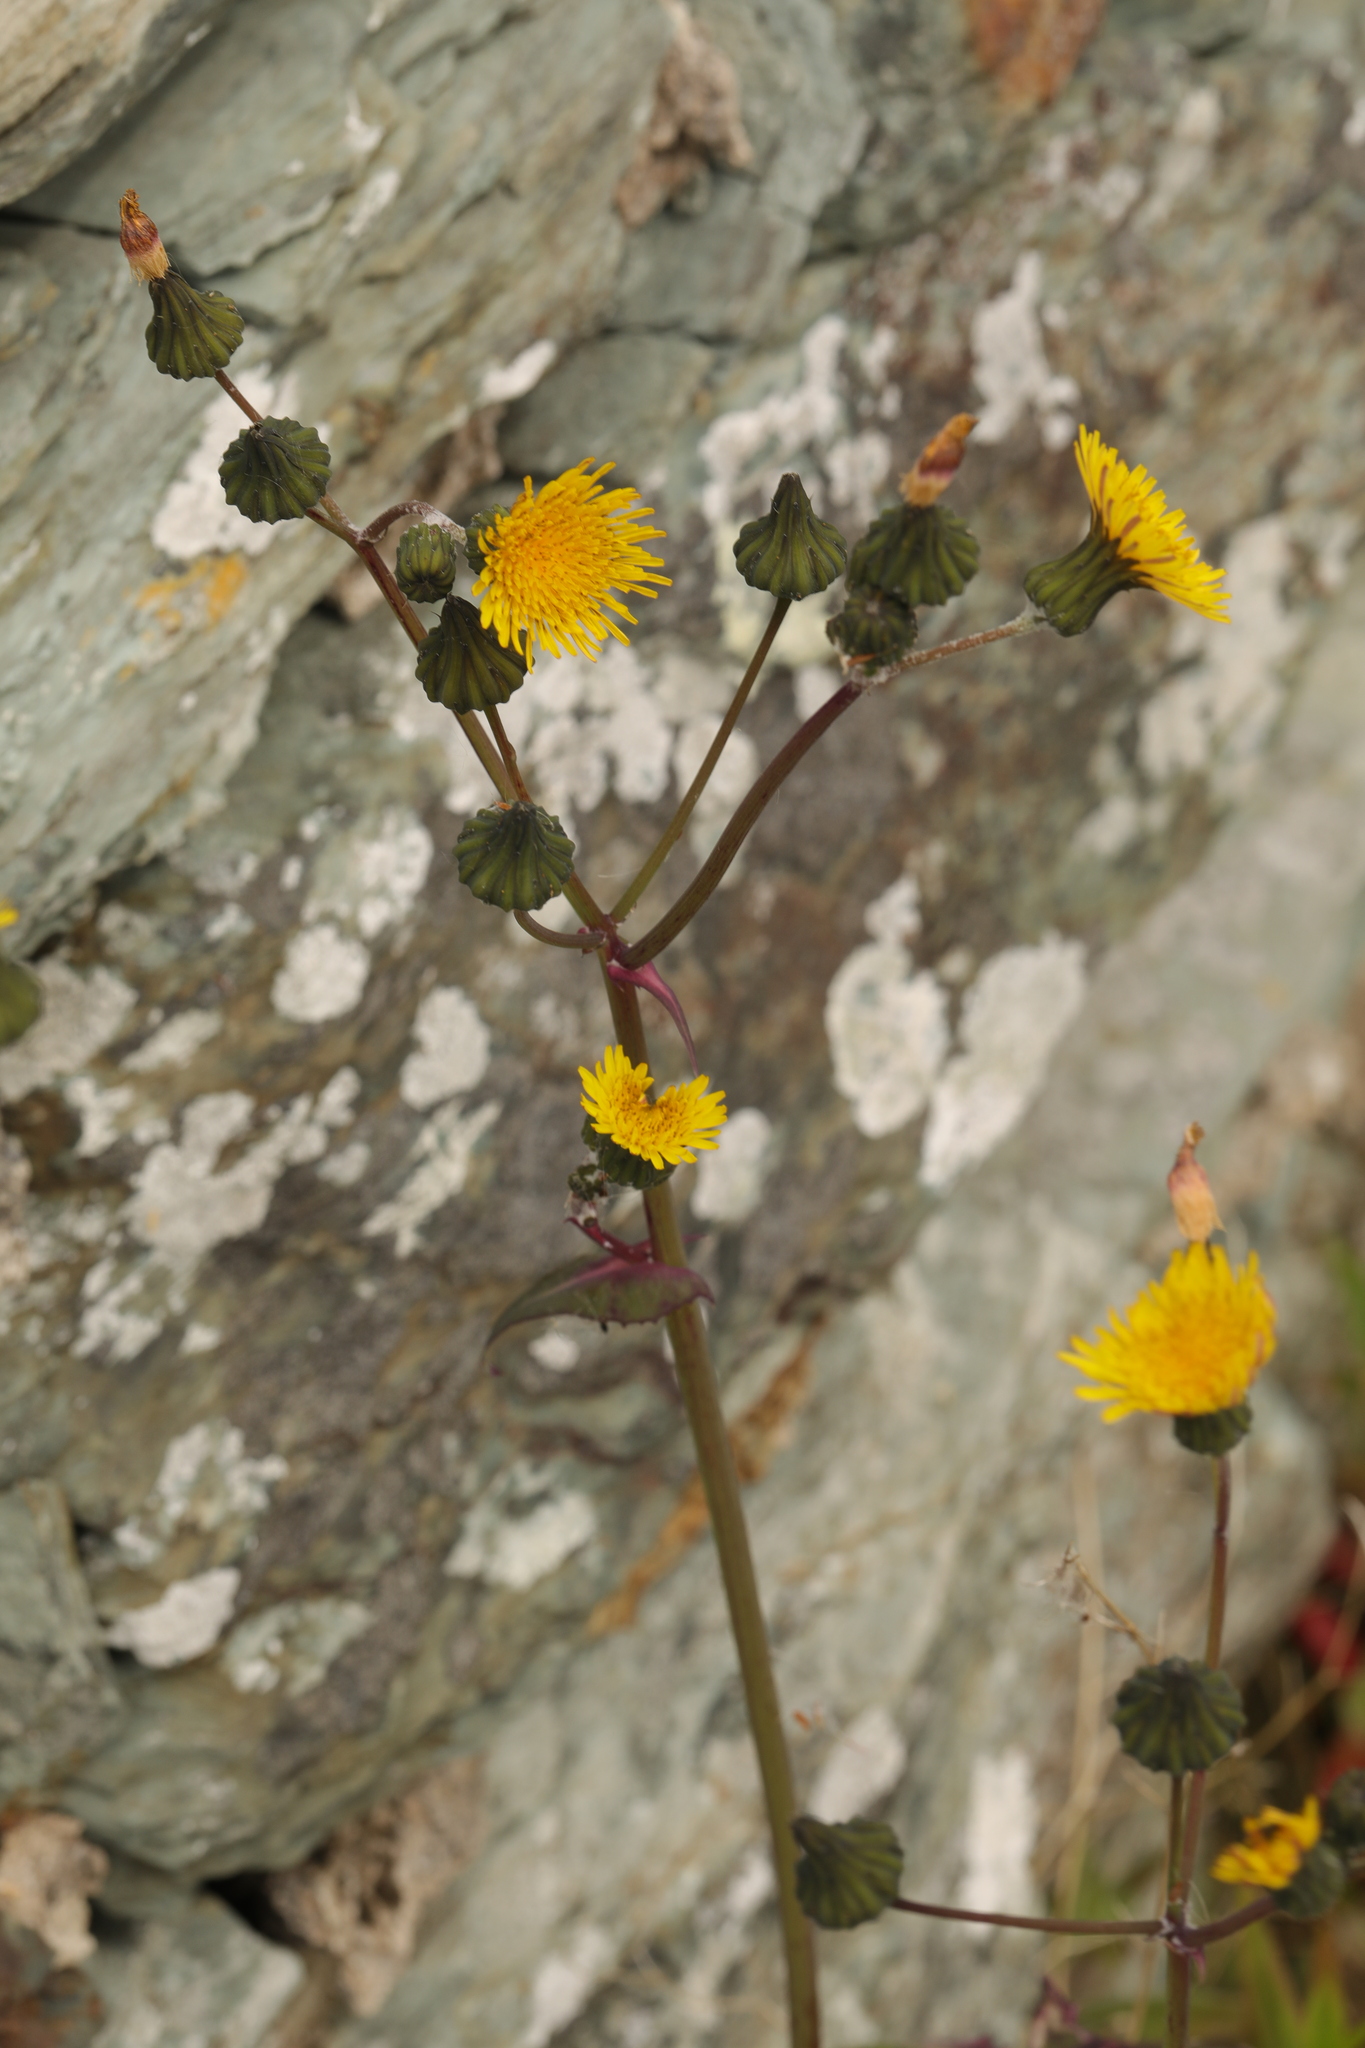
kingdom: Plantae
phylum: Tracheophyta
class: Magnoliopsida
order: Asterales
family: Asteraceae
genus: Sonchus
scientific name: Sonchus oleraceus
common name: Common sowthistle
